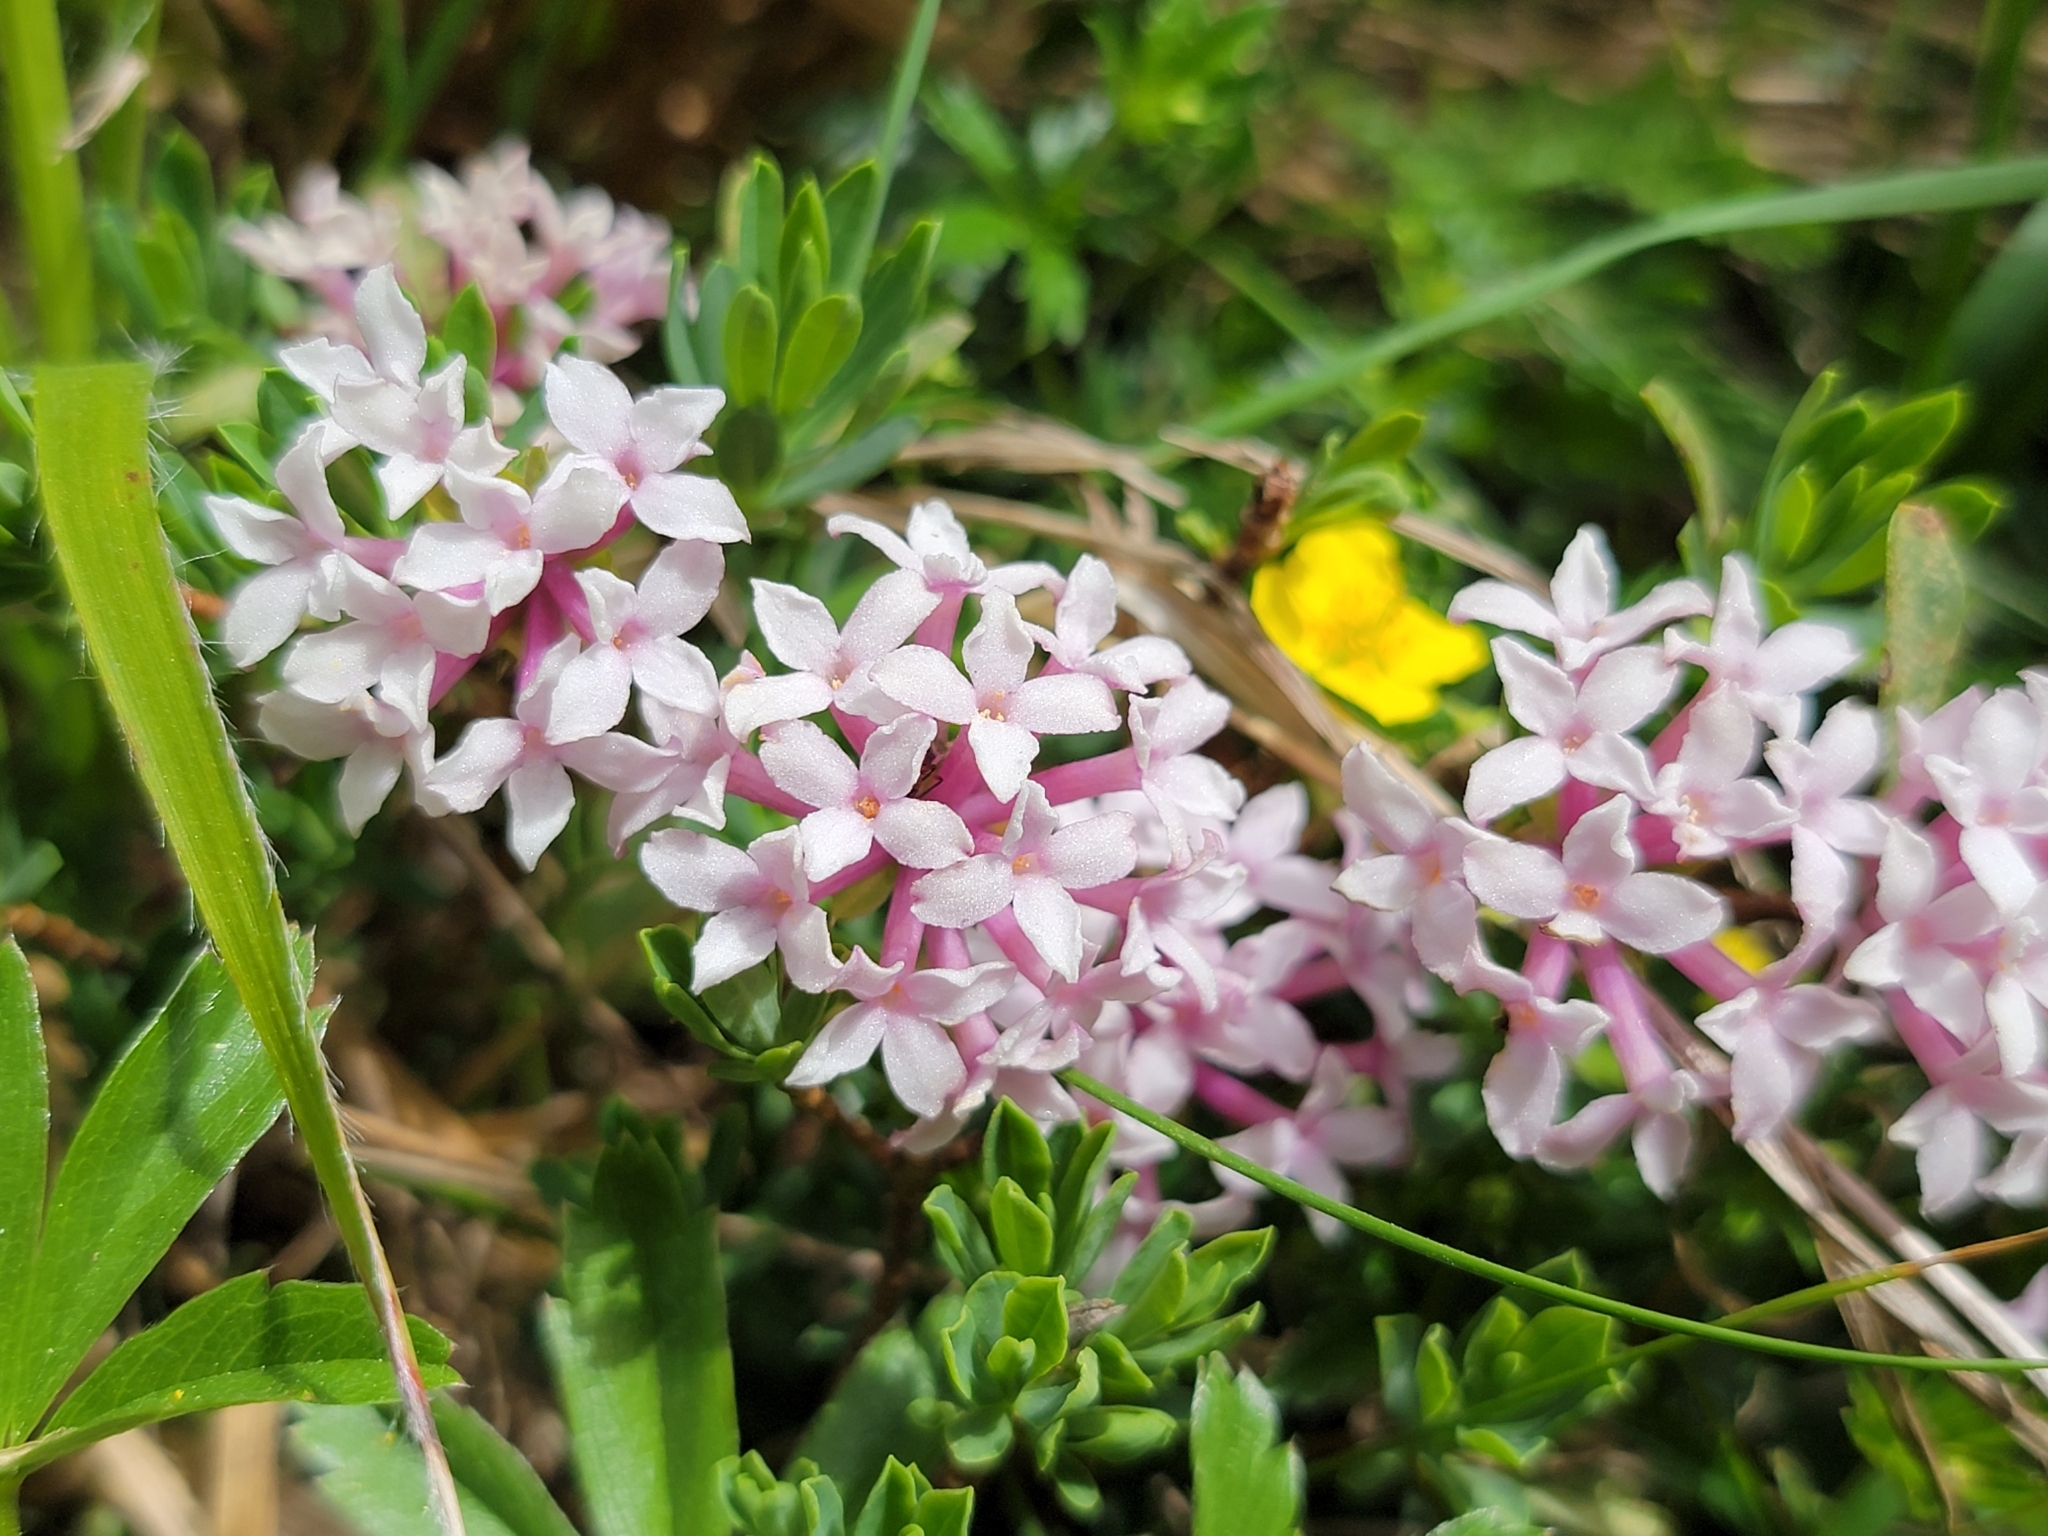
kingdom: Plantae
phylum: Tracheophyta
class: Magnoliopsida
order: Malvales
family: Thymelaeaceae
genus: Daphne
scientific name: Daphne striata
